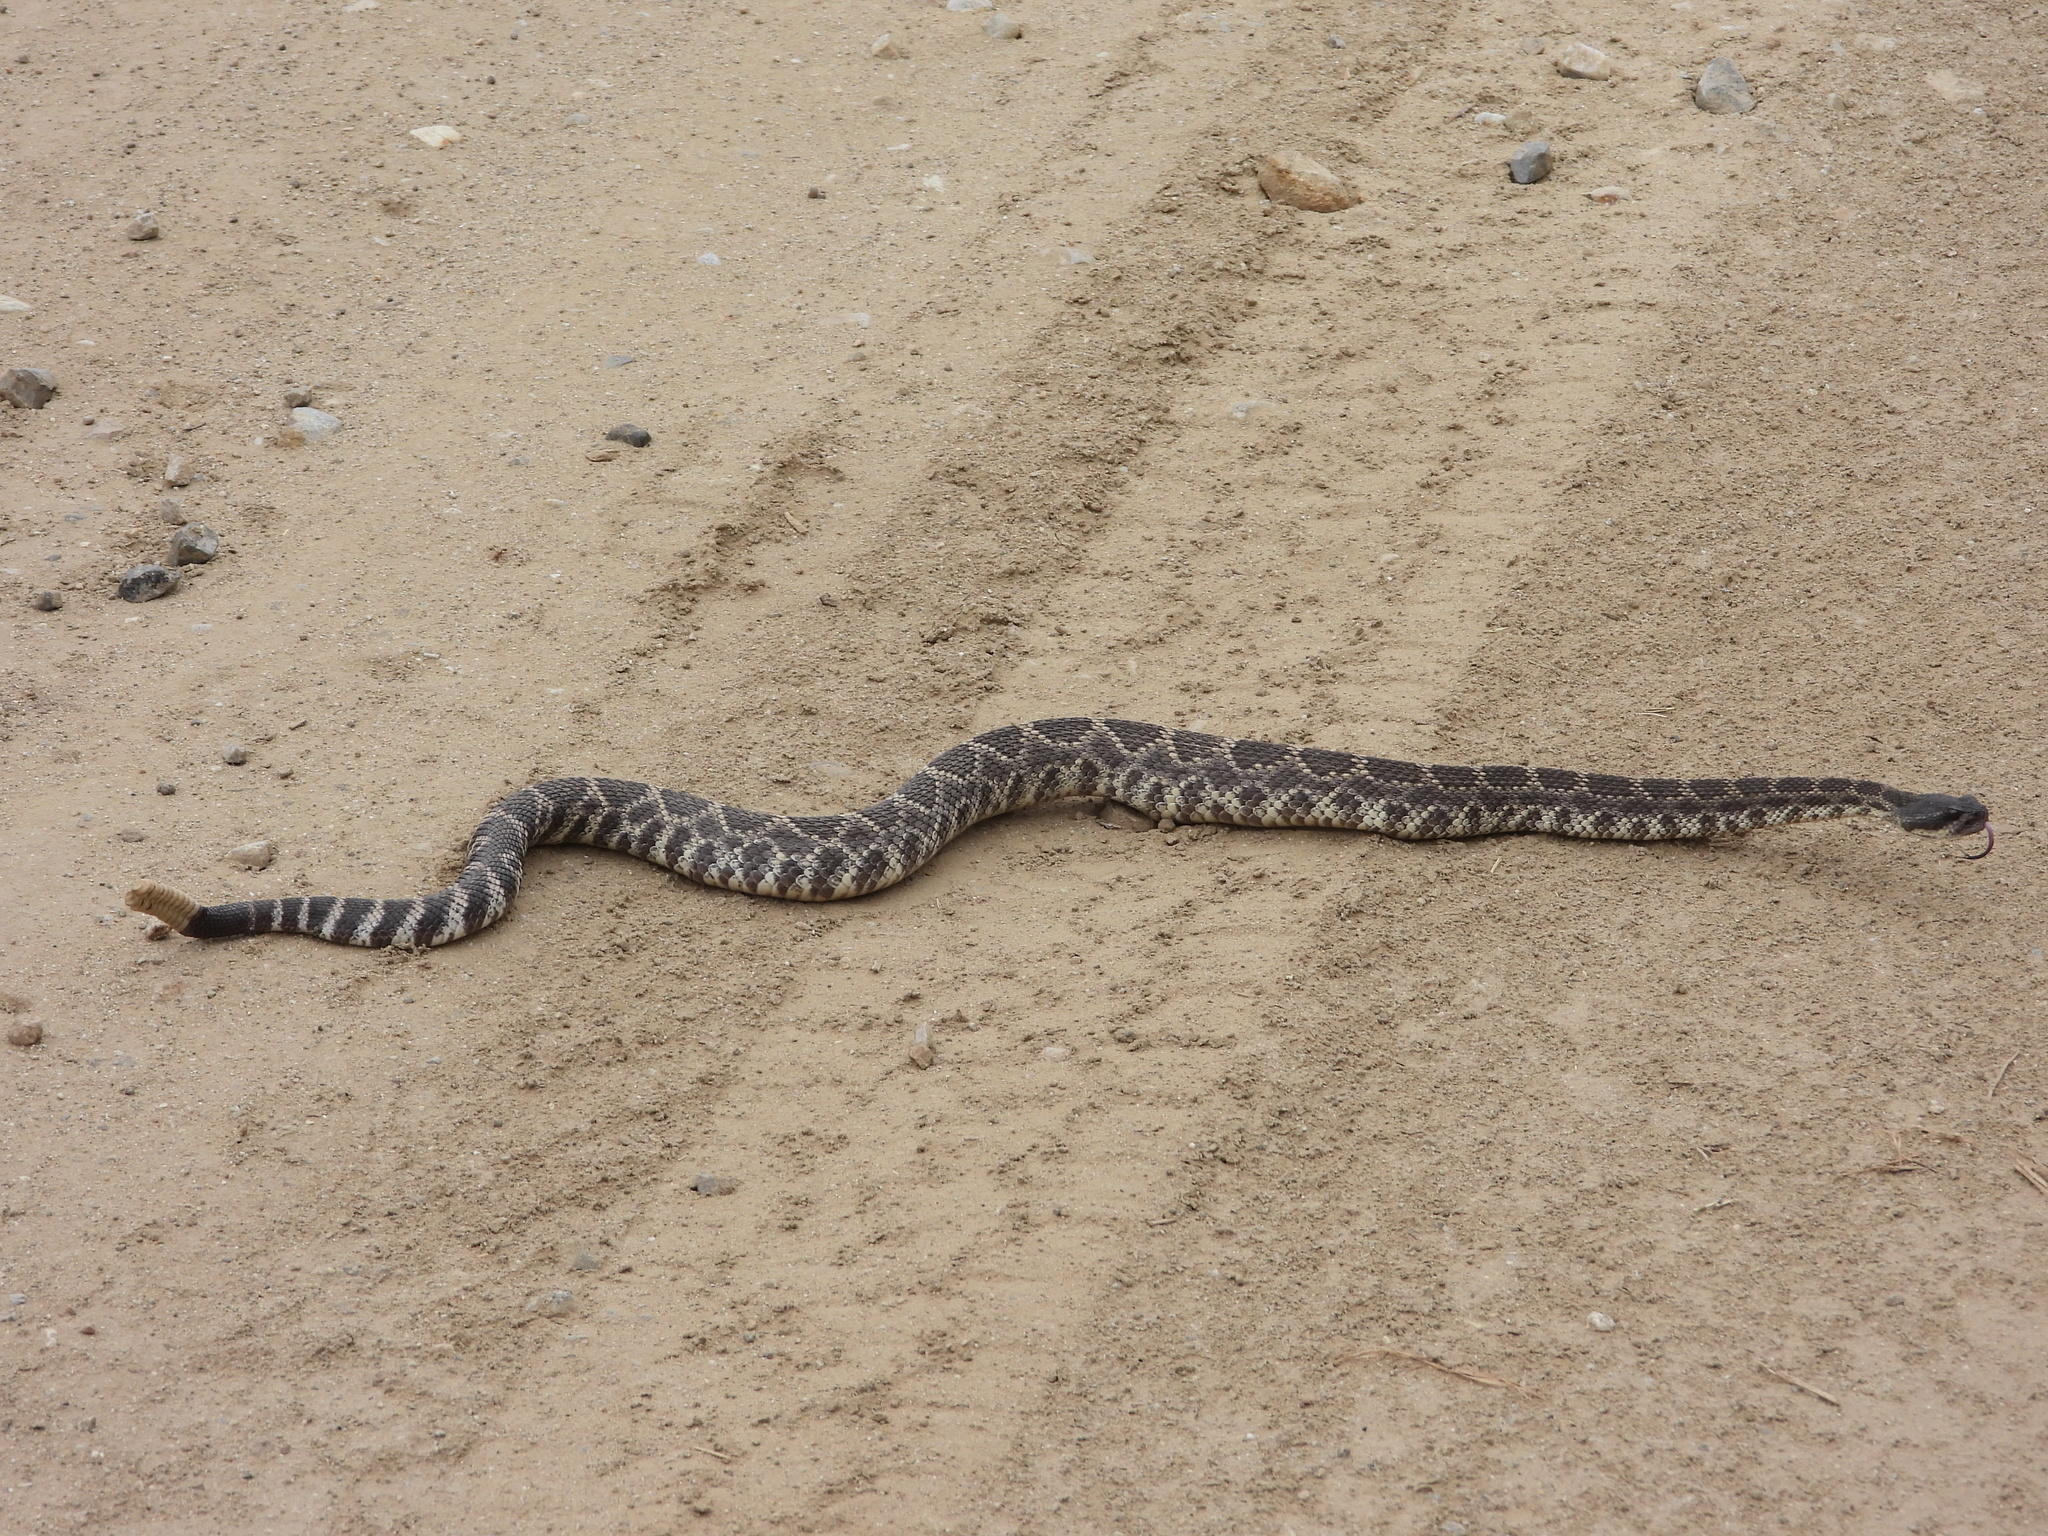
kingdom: Animalia
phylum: Chordata
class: Squamata
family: Viperidae
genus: Crotalus
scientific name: Crotalus oreganus
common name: Abyssus
